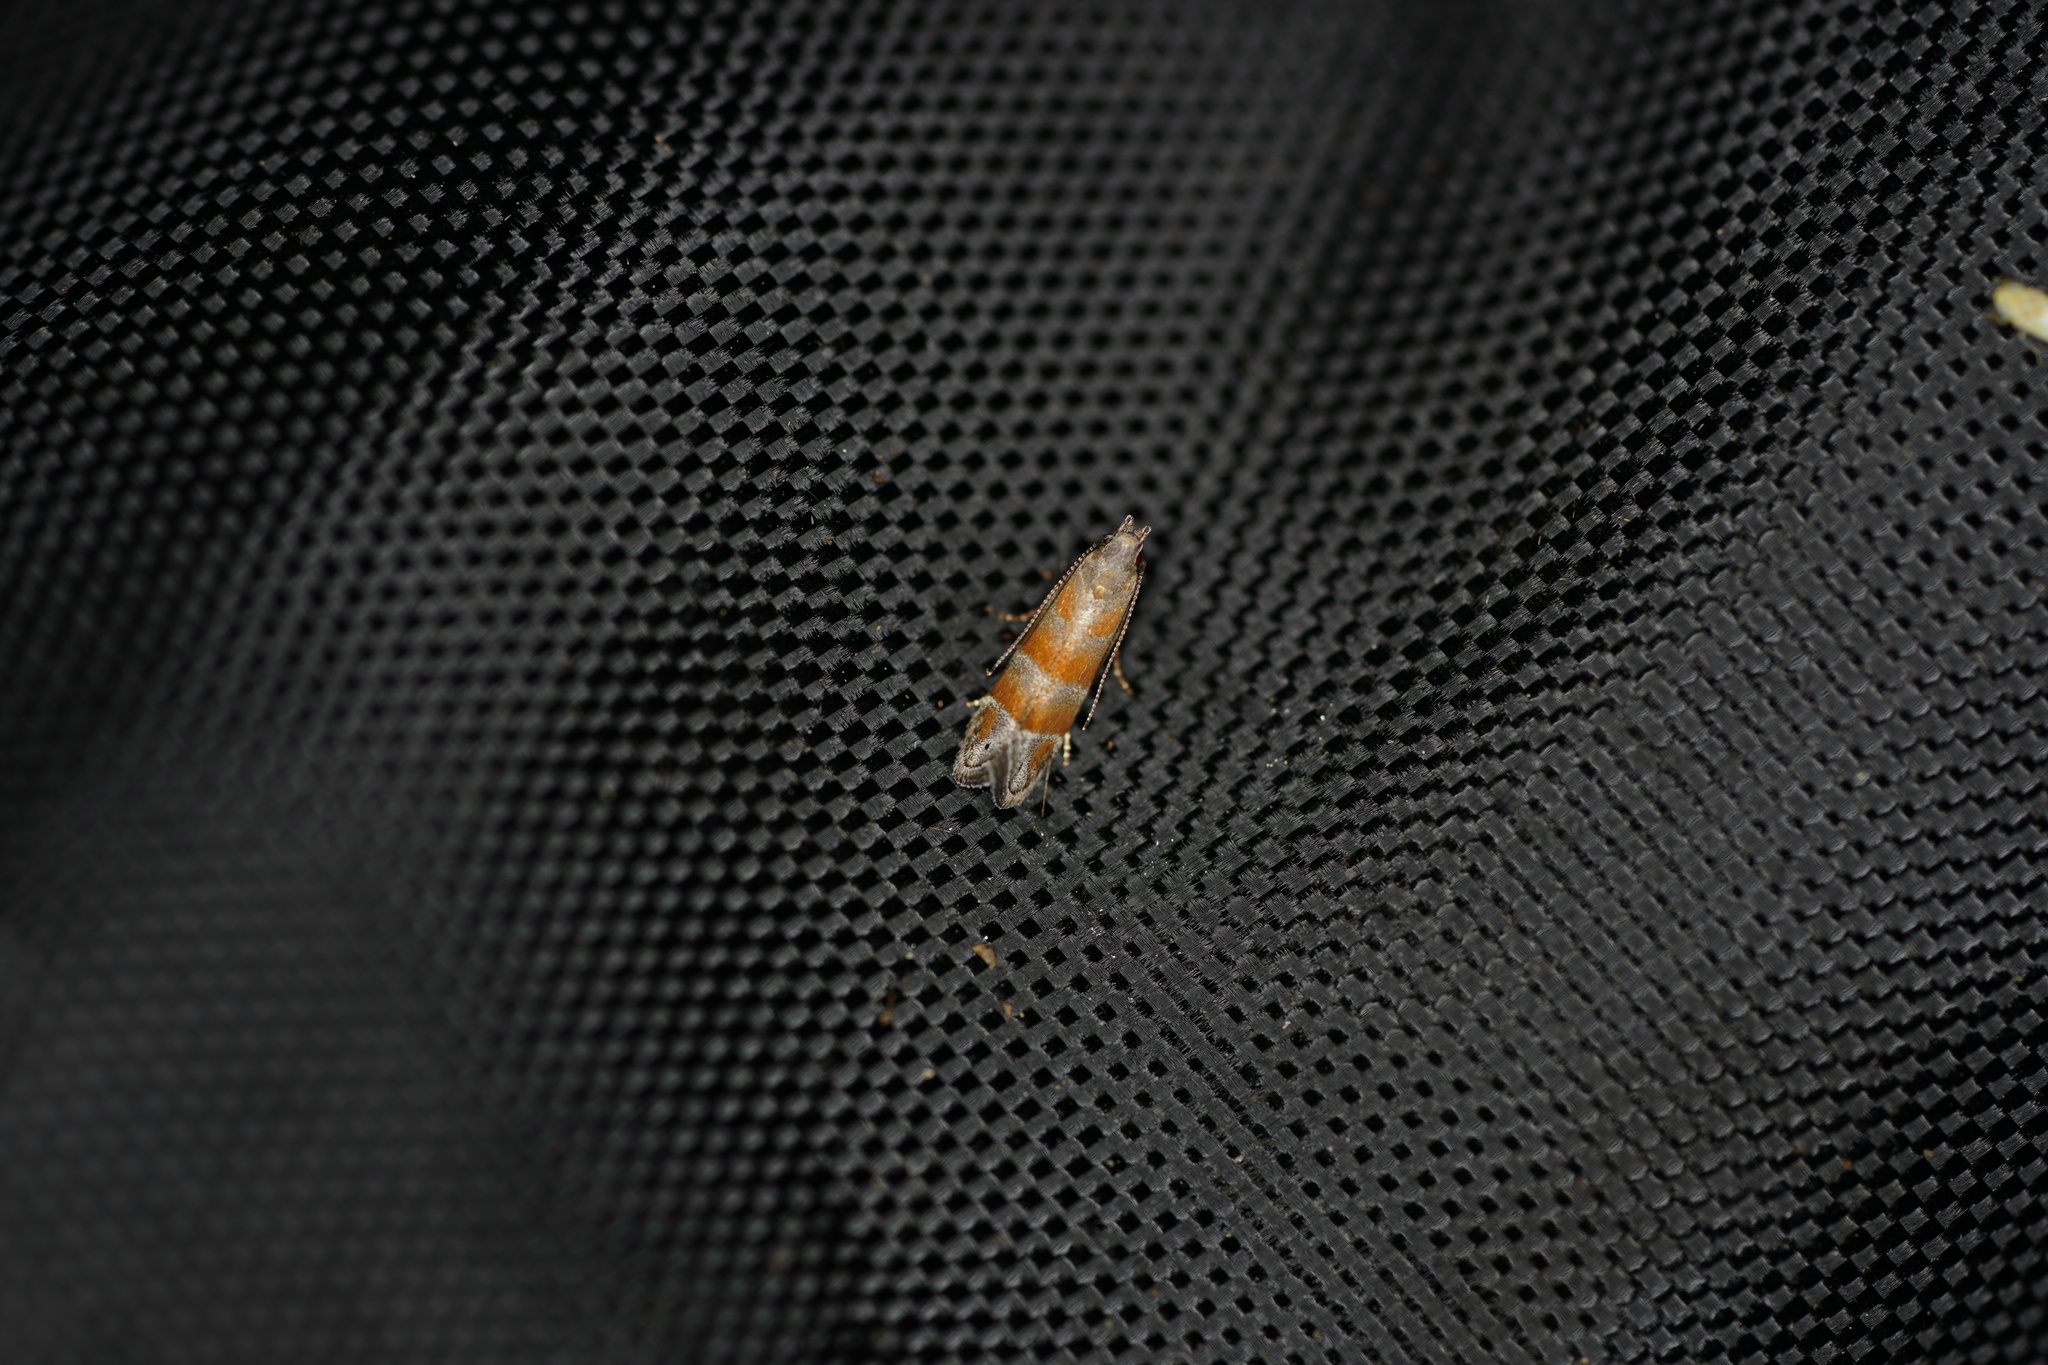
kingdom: Animalia
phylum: Arthropoda
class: Insecta
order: Lepidoptera
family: Gelechiidae
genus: Battaristis
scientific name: Battaristis vittella
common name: Orange stripe-backed moth
